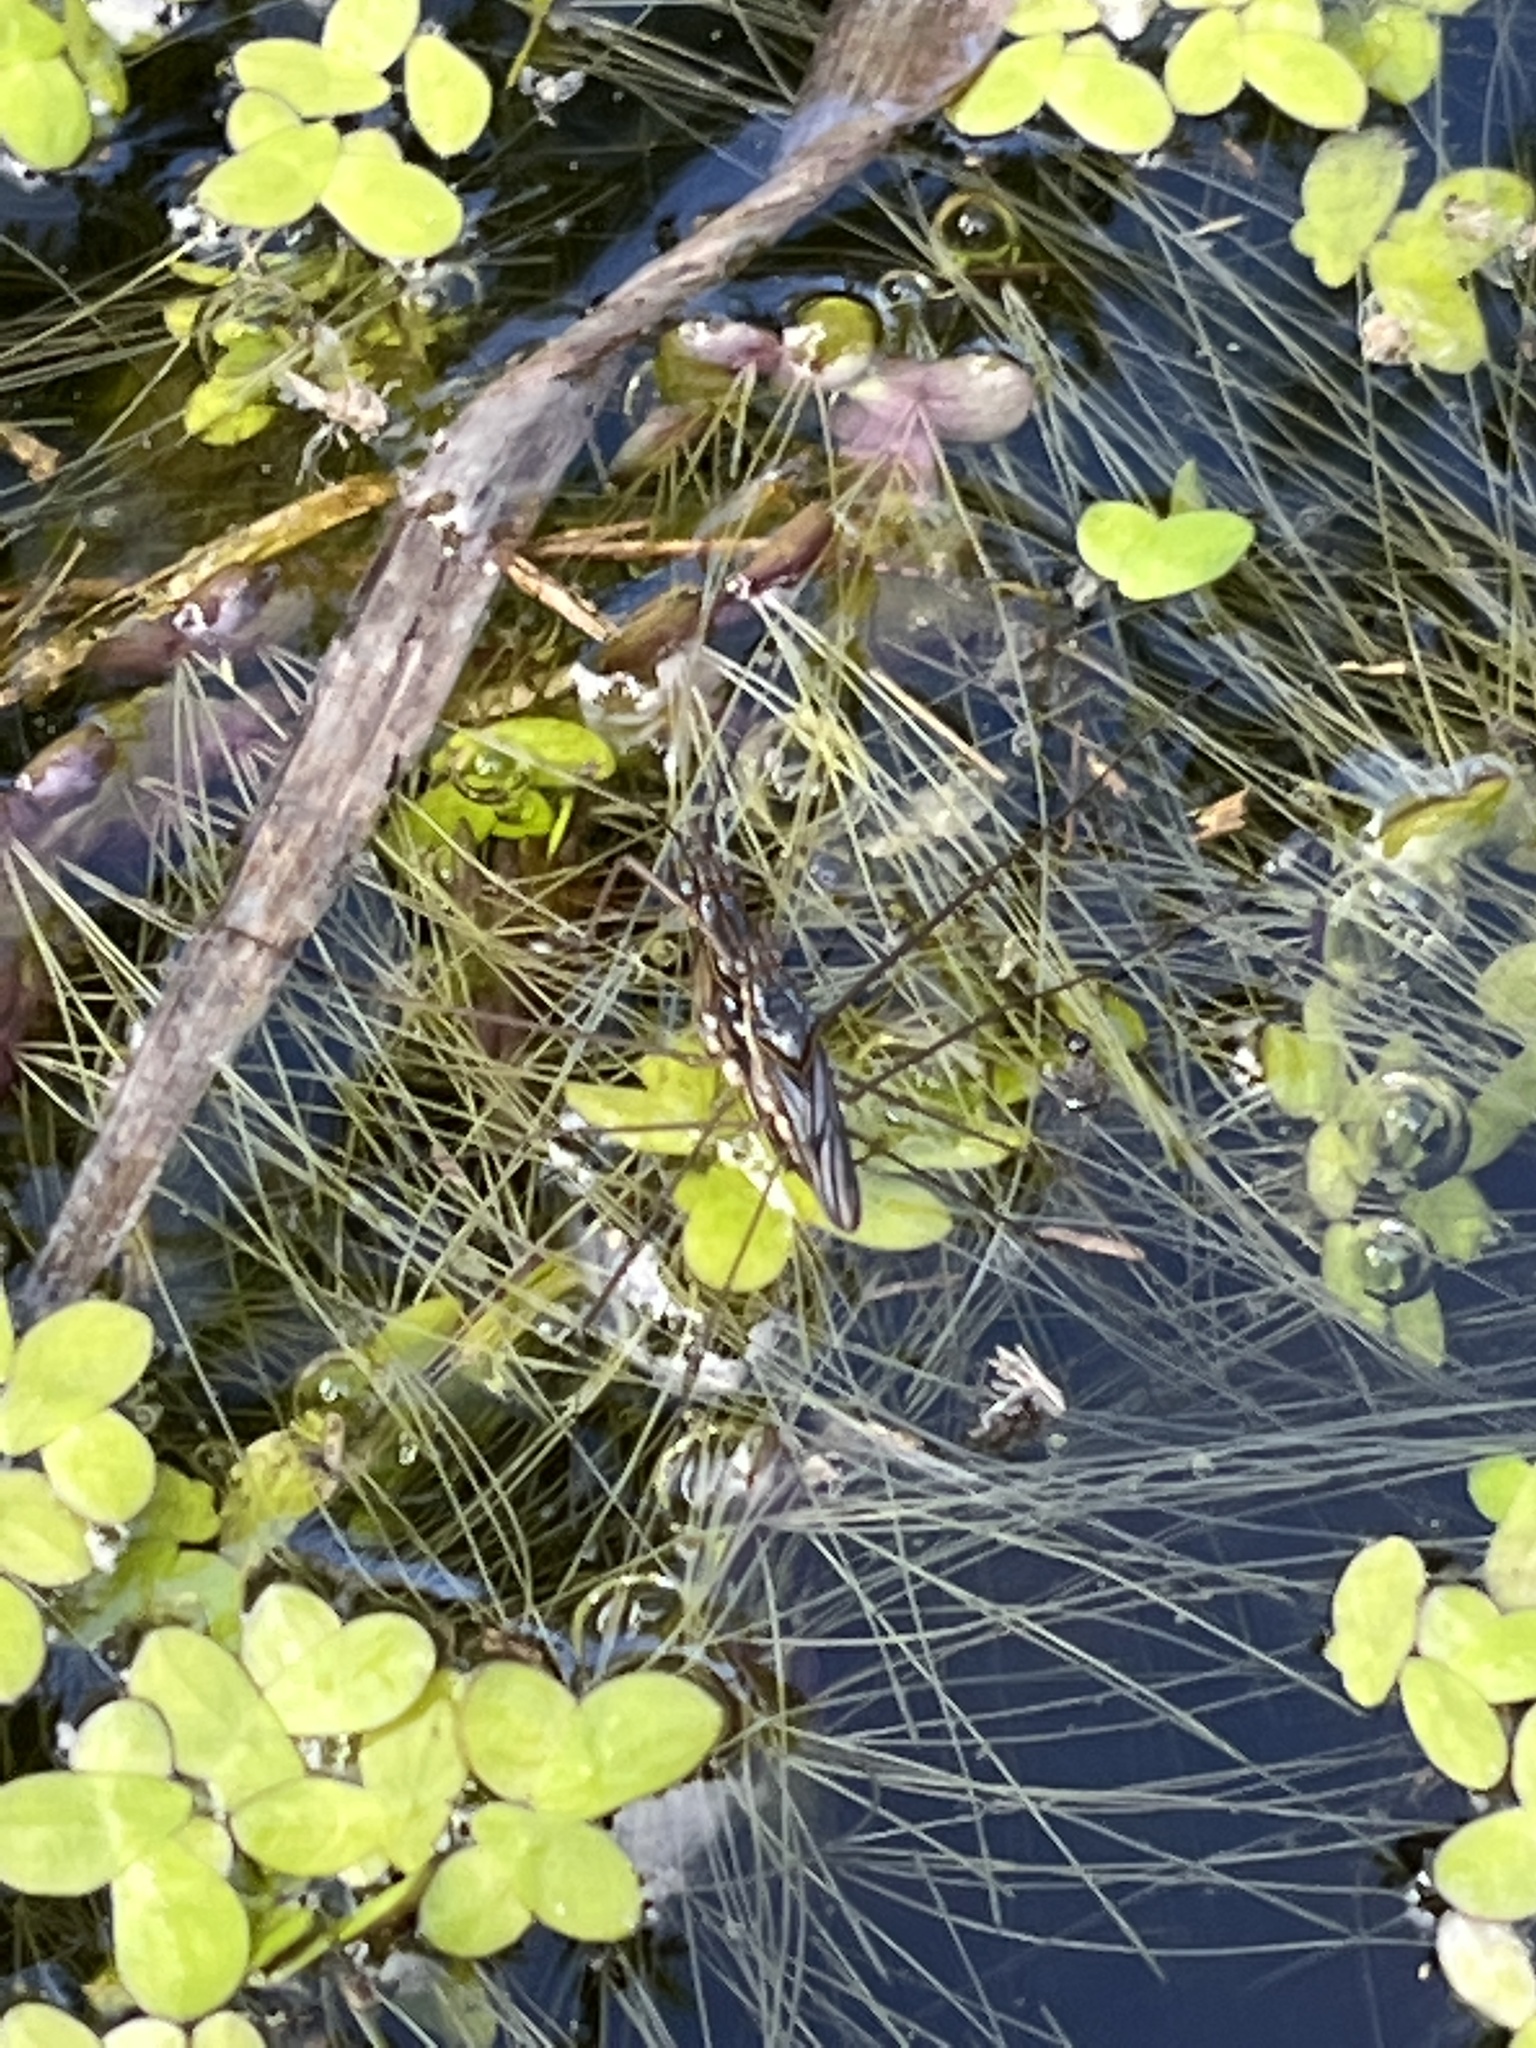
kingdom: Animalia
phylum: Arthropoda
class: Insecta
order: Hemiptera
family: Gerridae
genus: Limnogonus
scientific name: Limnogonus franciscanus
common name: Franciscan pond skater
